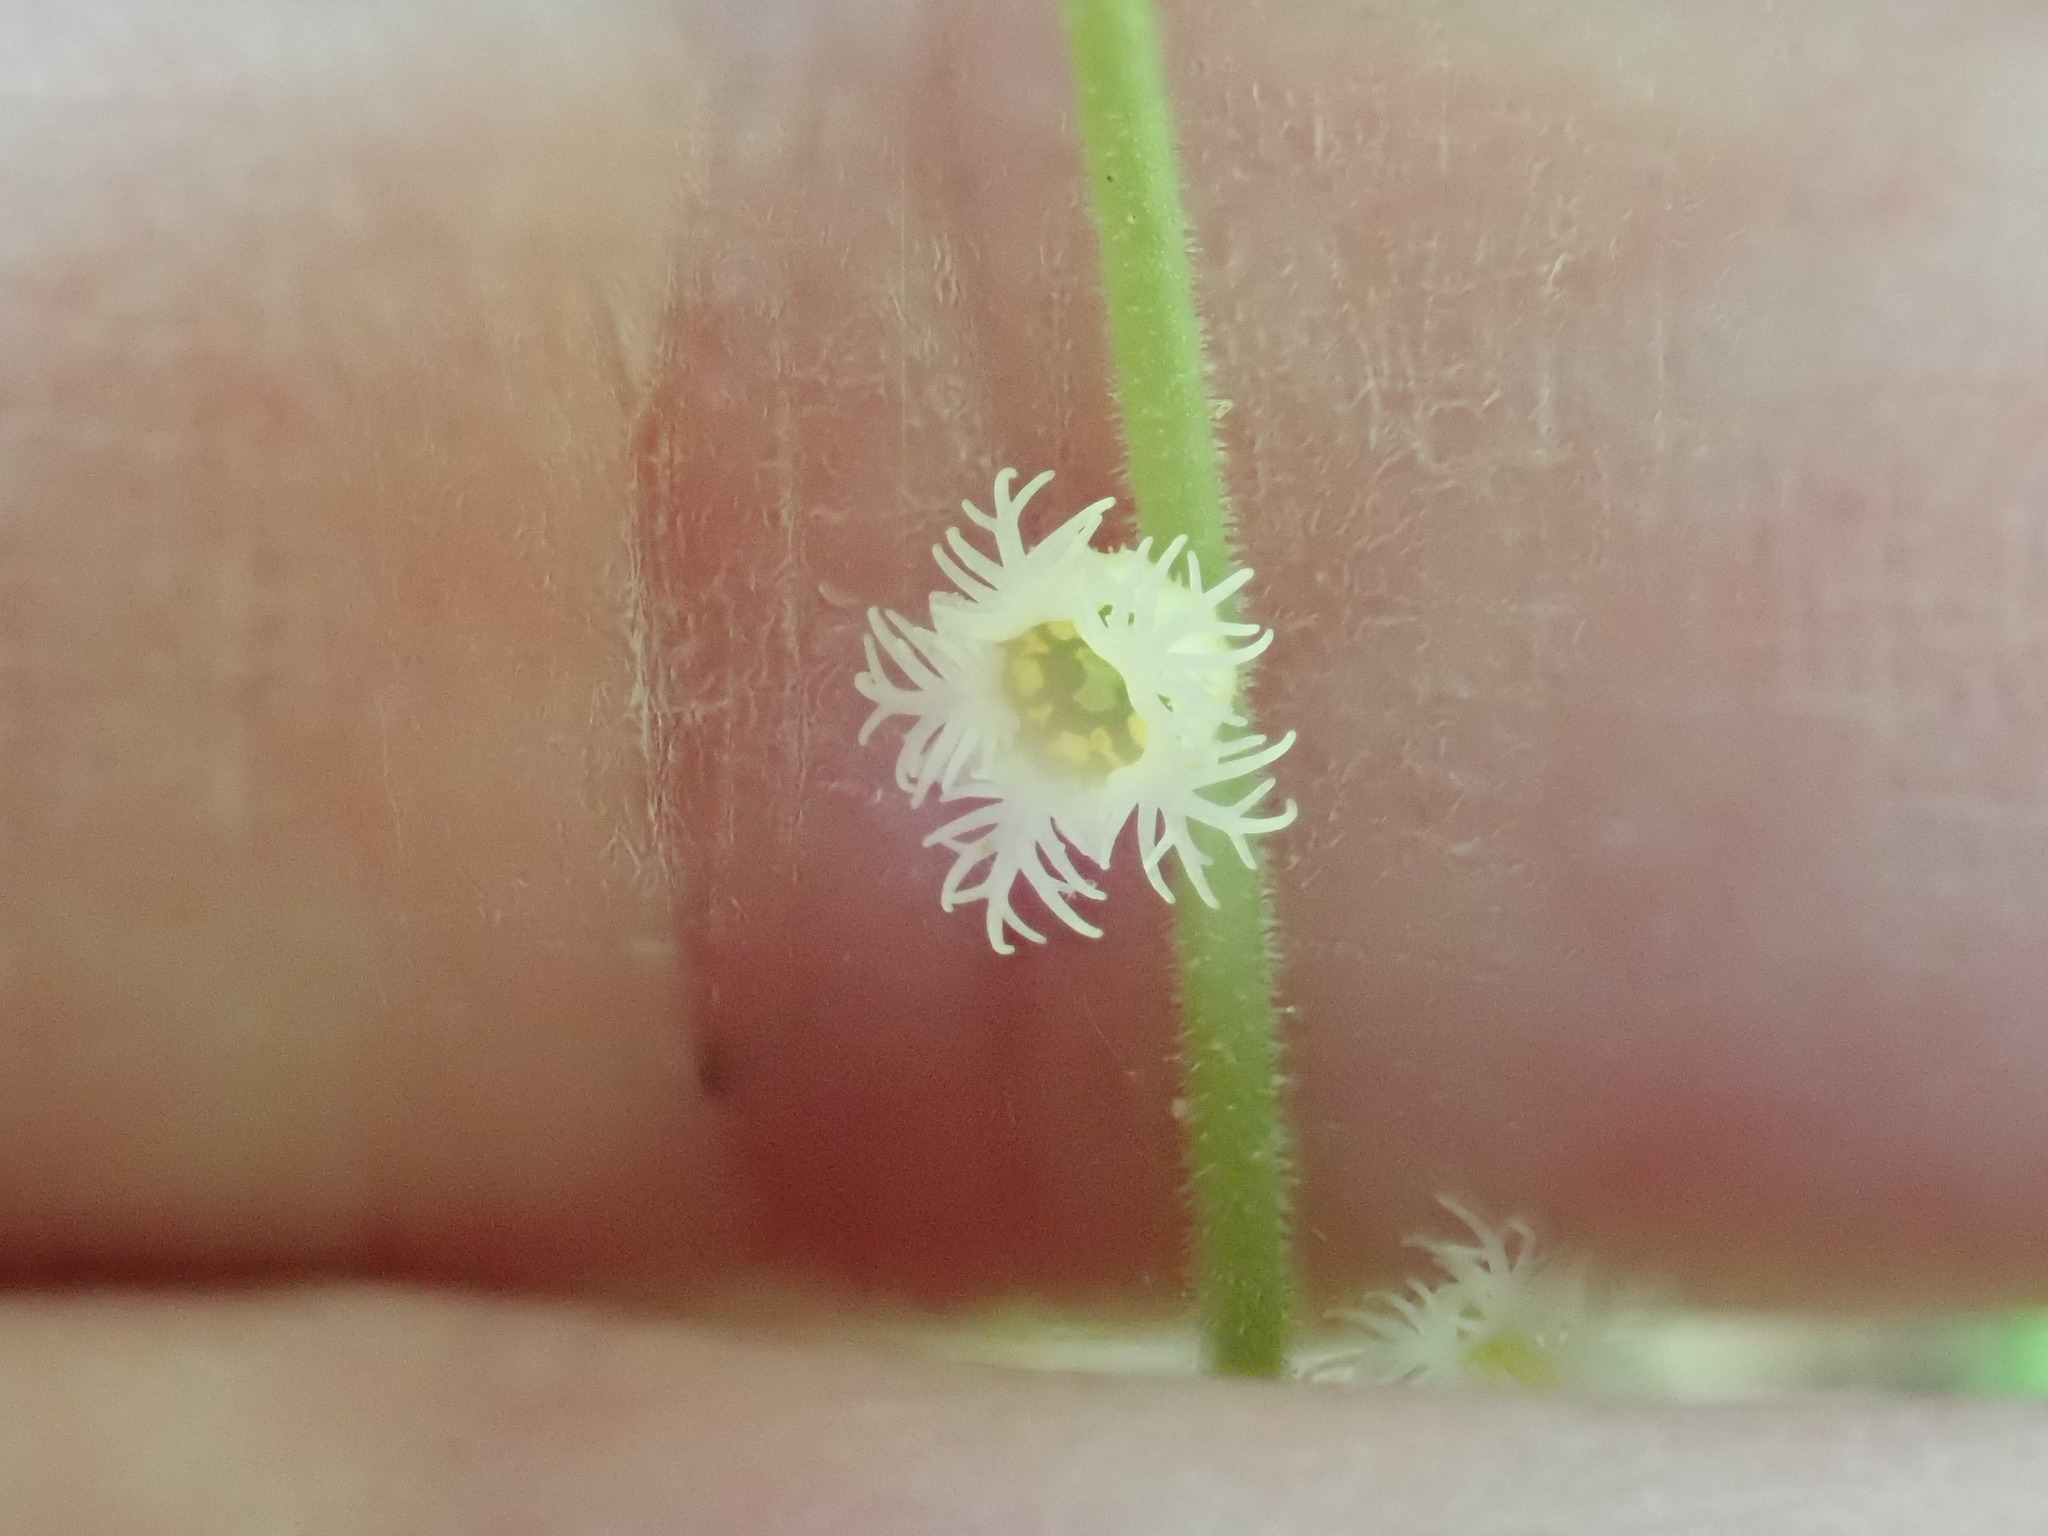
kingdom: Plantae
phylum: Tracheophyta
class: Magnoliopsida
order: Saxifragales
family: Saxifragaceae
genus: Mitella
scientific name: Mitella diphylla
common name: Coolwort
